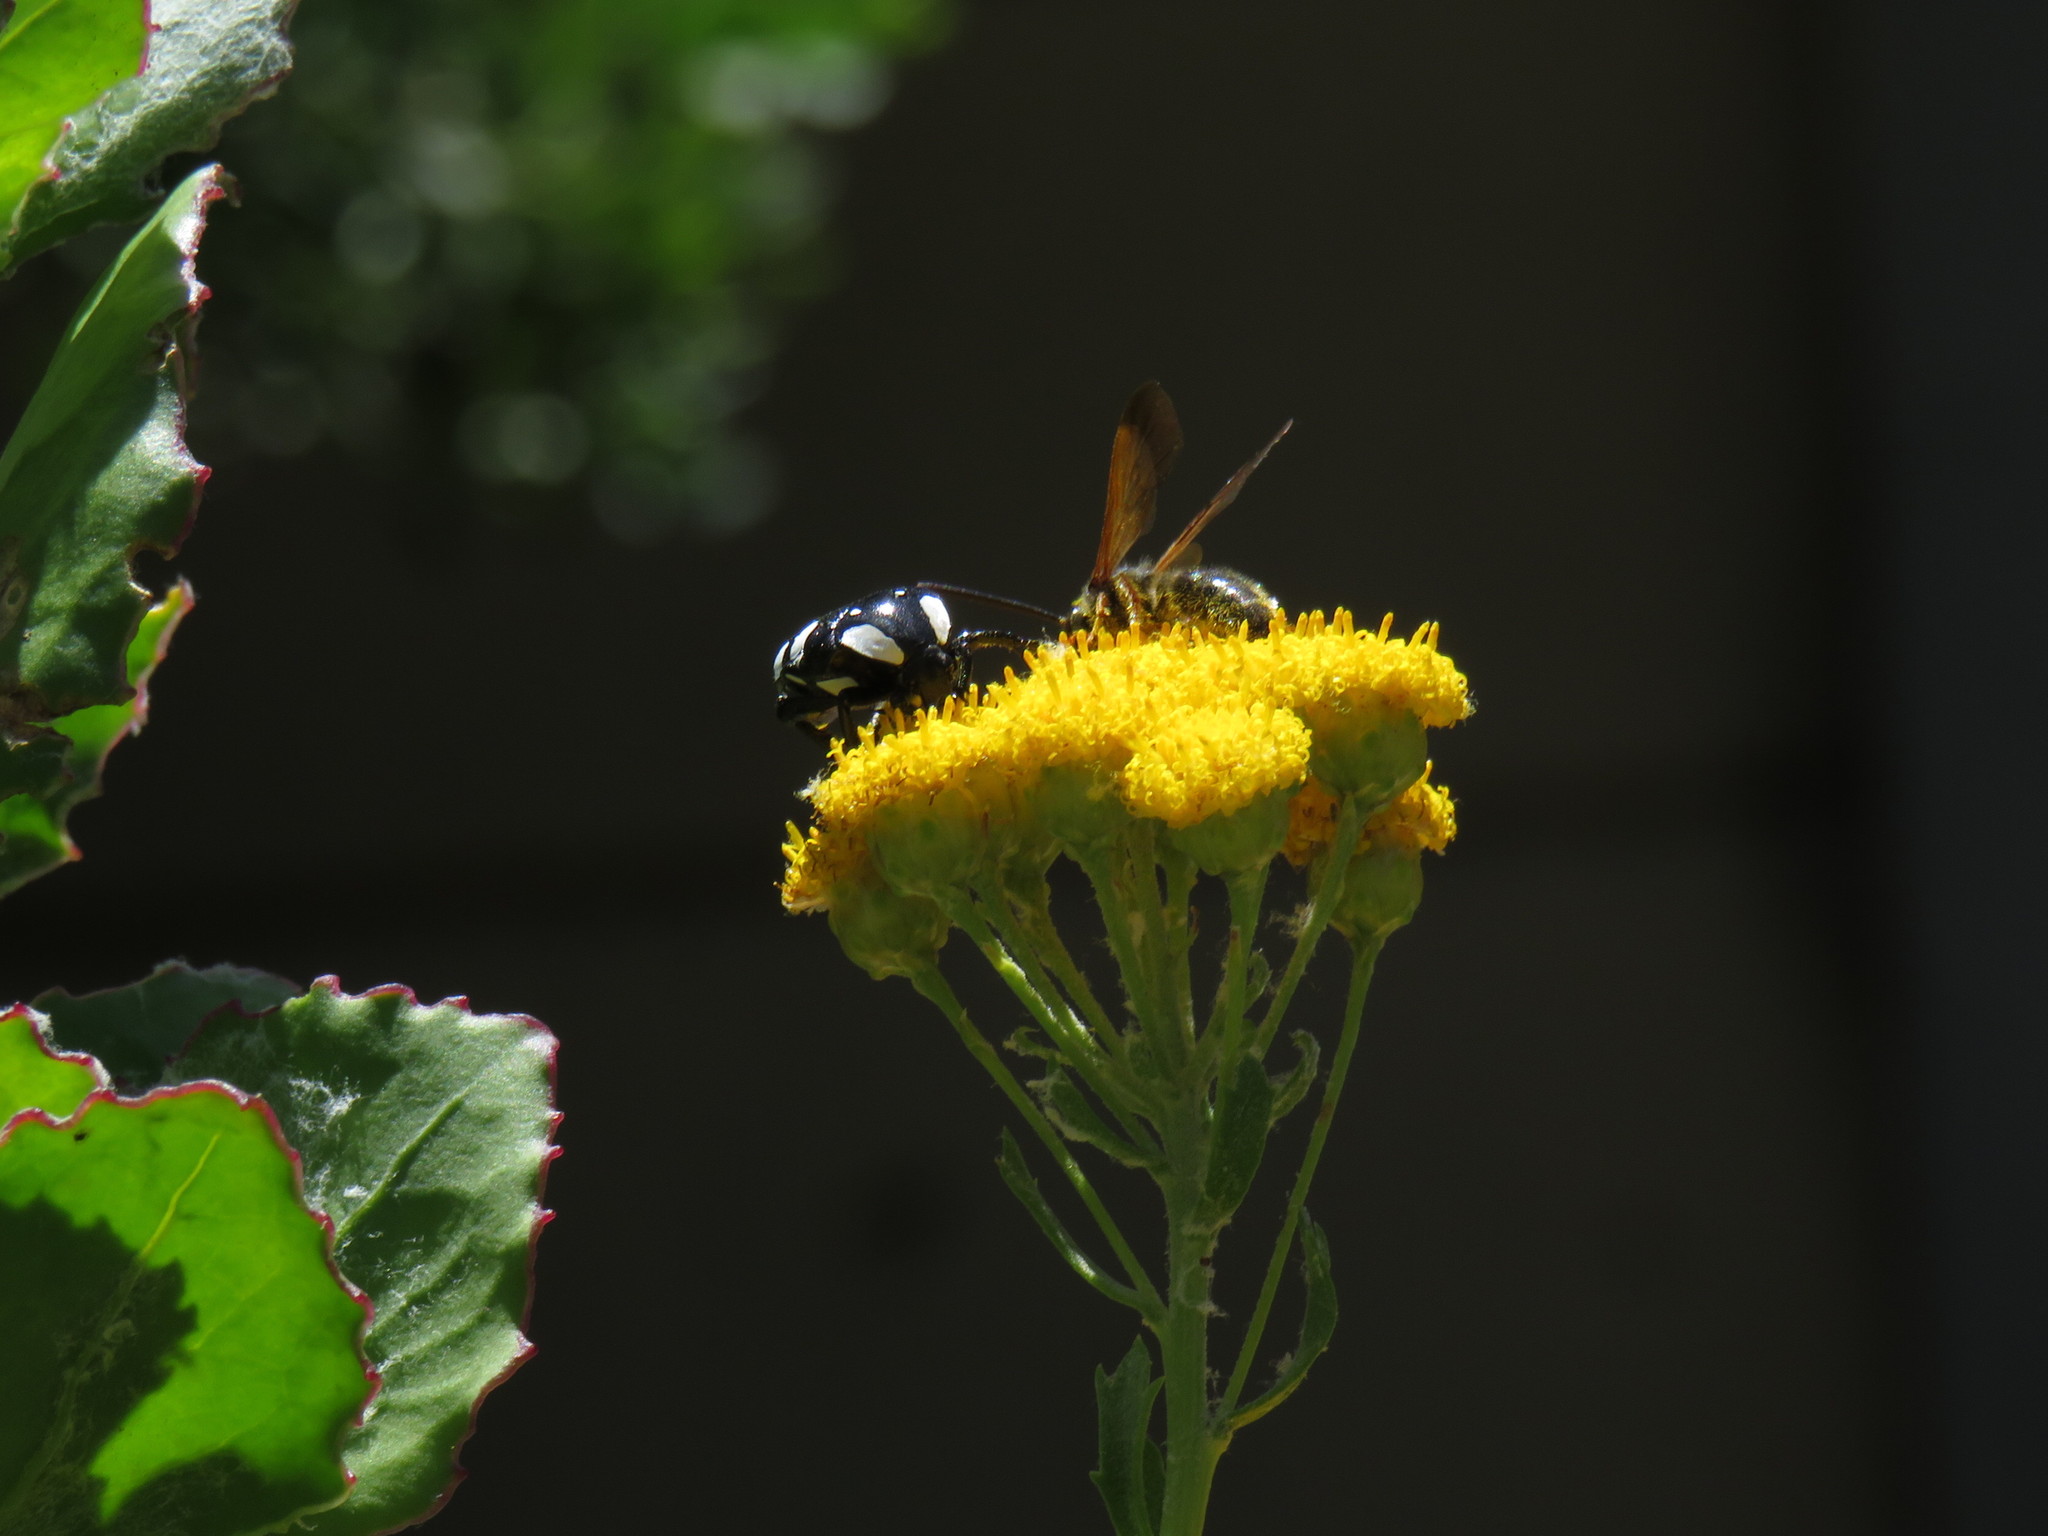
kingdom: Plantae
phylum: Tracheophyta
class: Magnoliopsida
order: Asterales
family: Asteraceae
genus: Athanasia
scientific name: Athanasia trifurcata
